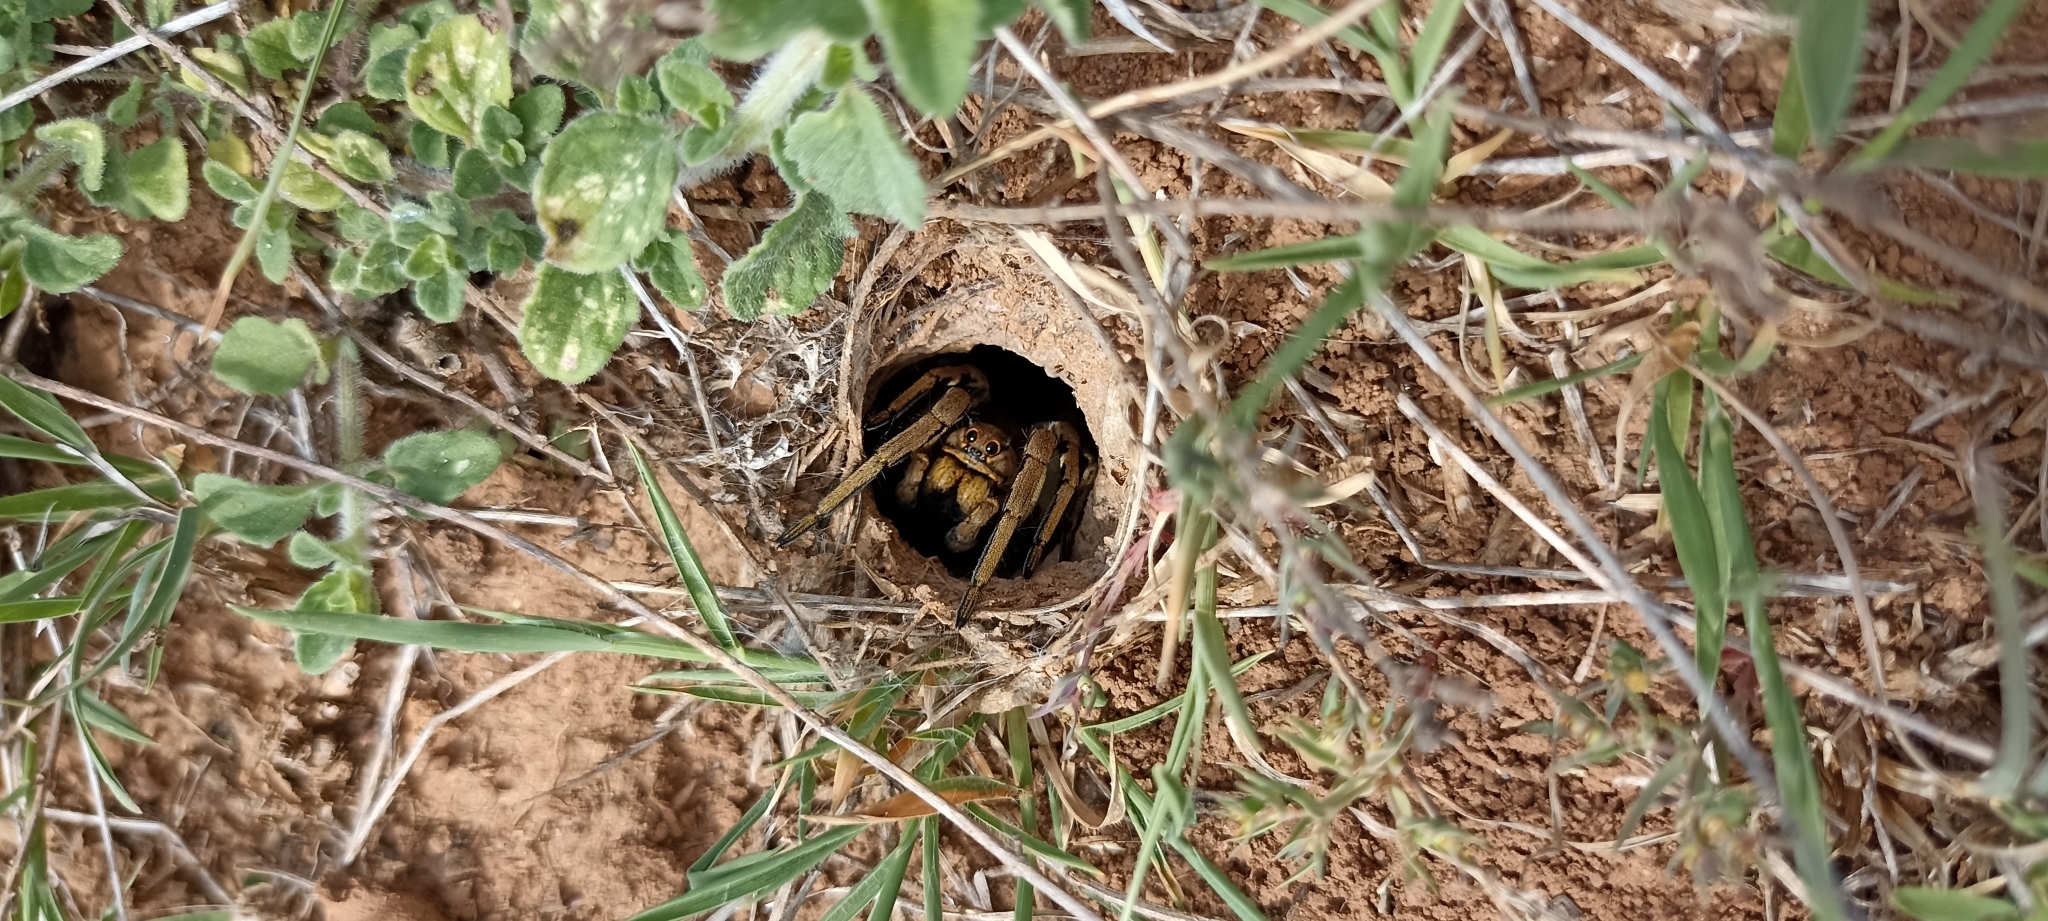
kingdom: Animalia
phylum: Arthropoda
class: Arachnida
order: Araneae
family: Lycosidae
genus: Lycosa
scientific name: Lycosa tarantula
